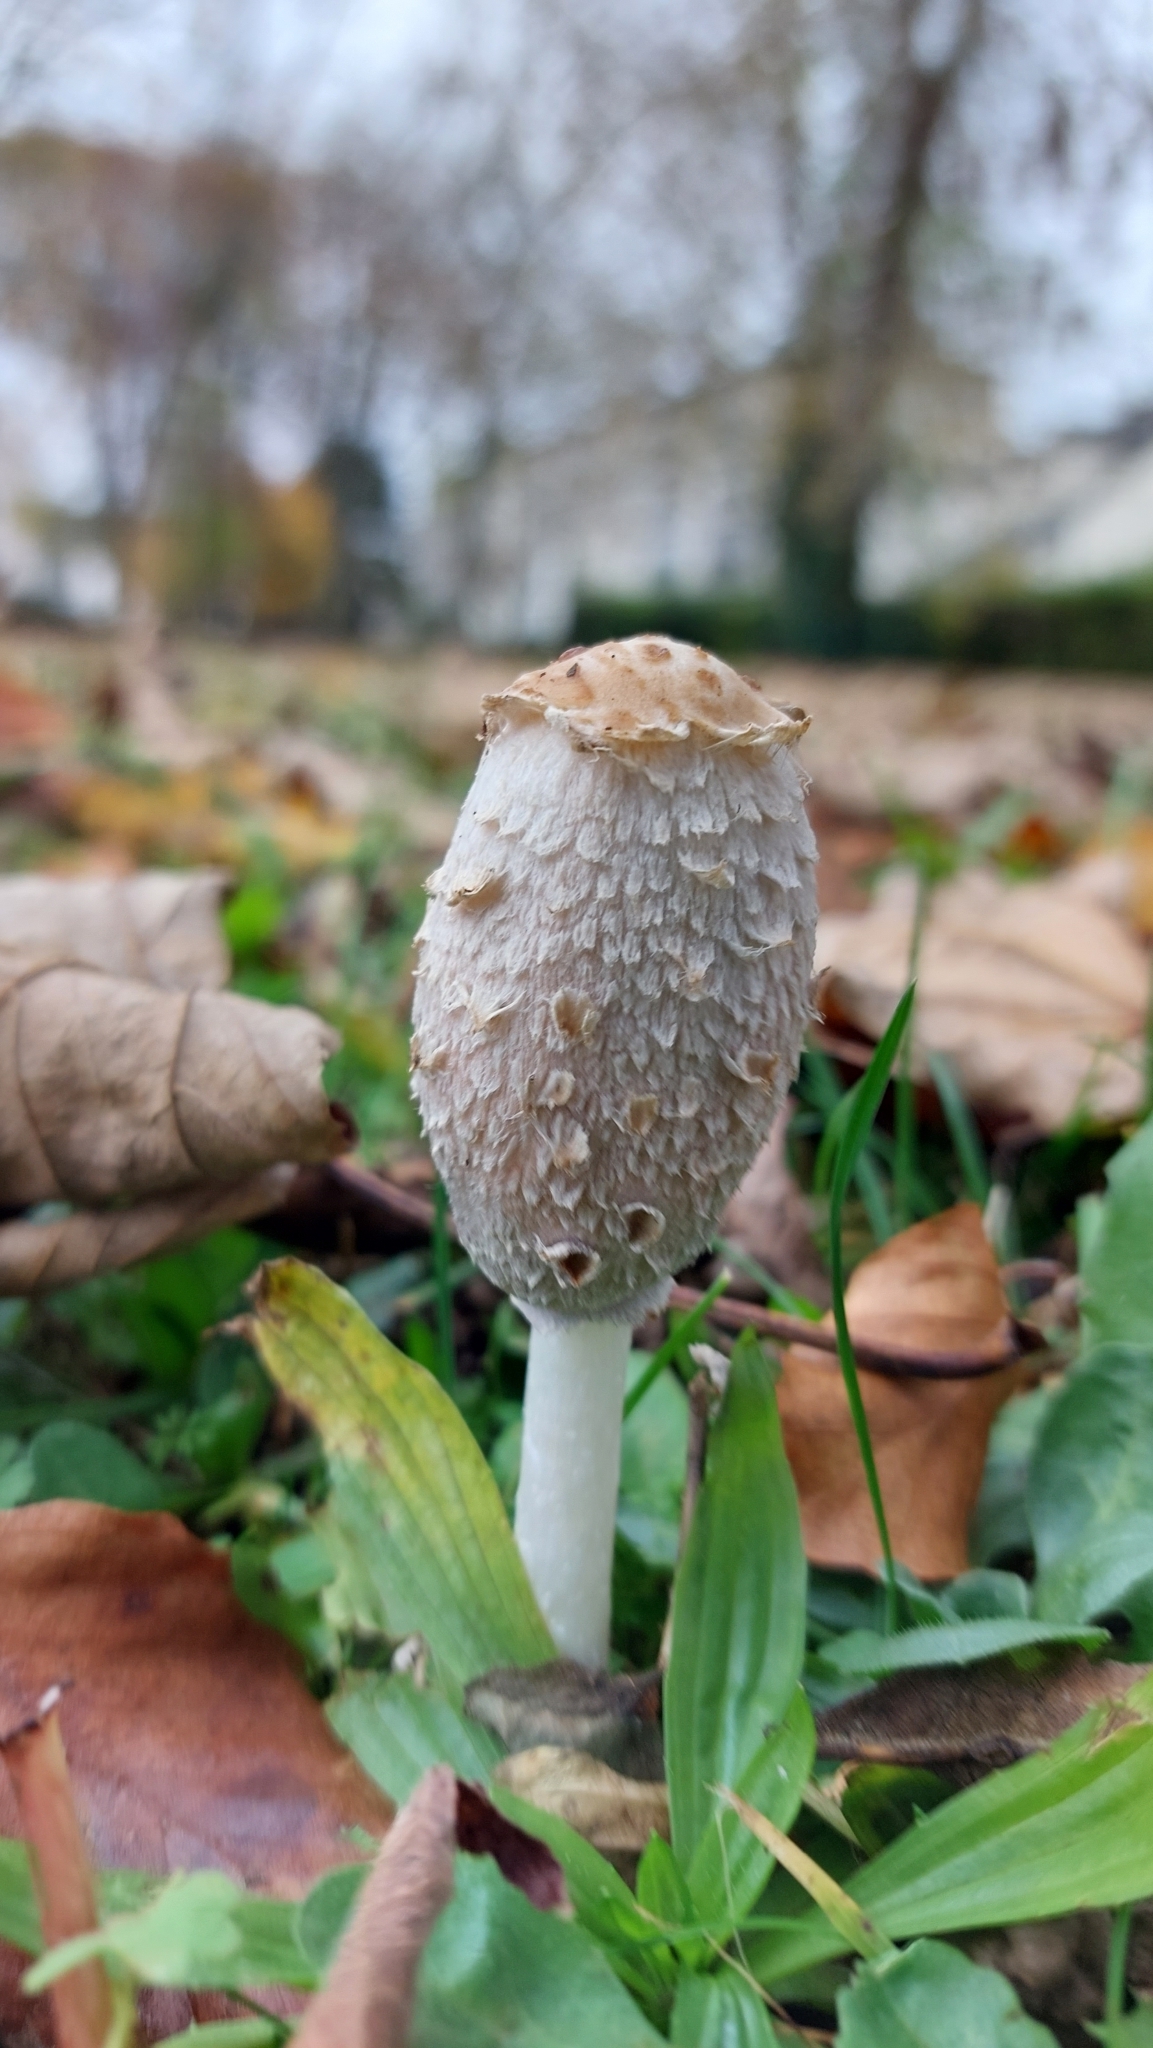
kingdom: Fungi
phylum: Basidiomycota
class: Agaricomycetes
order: Agaricales
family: Agaricaceae
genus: Coprinus
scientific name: Coprinus comatus
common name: Lawyer's wig
